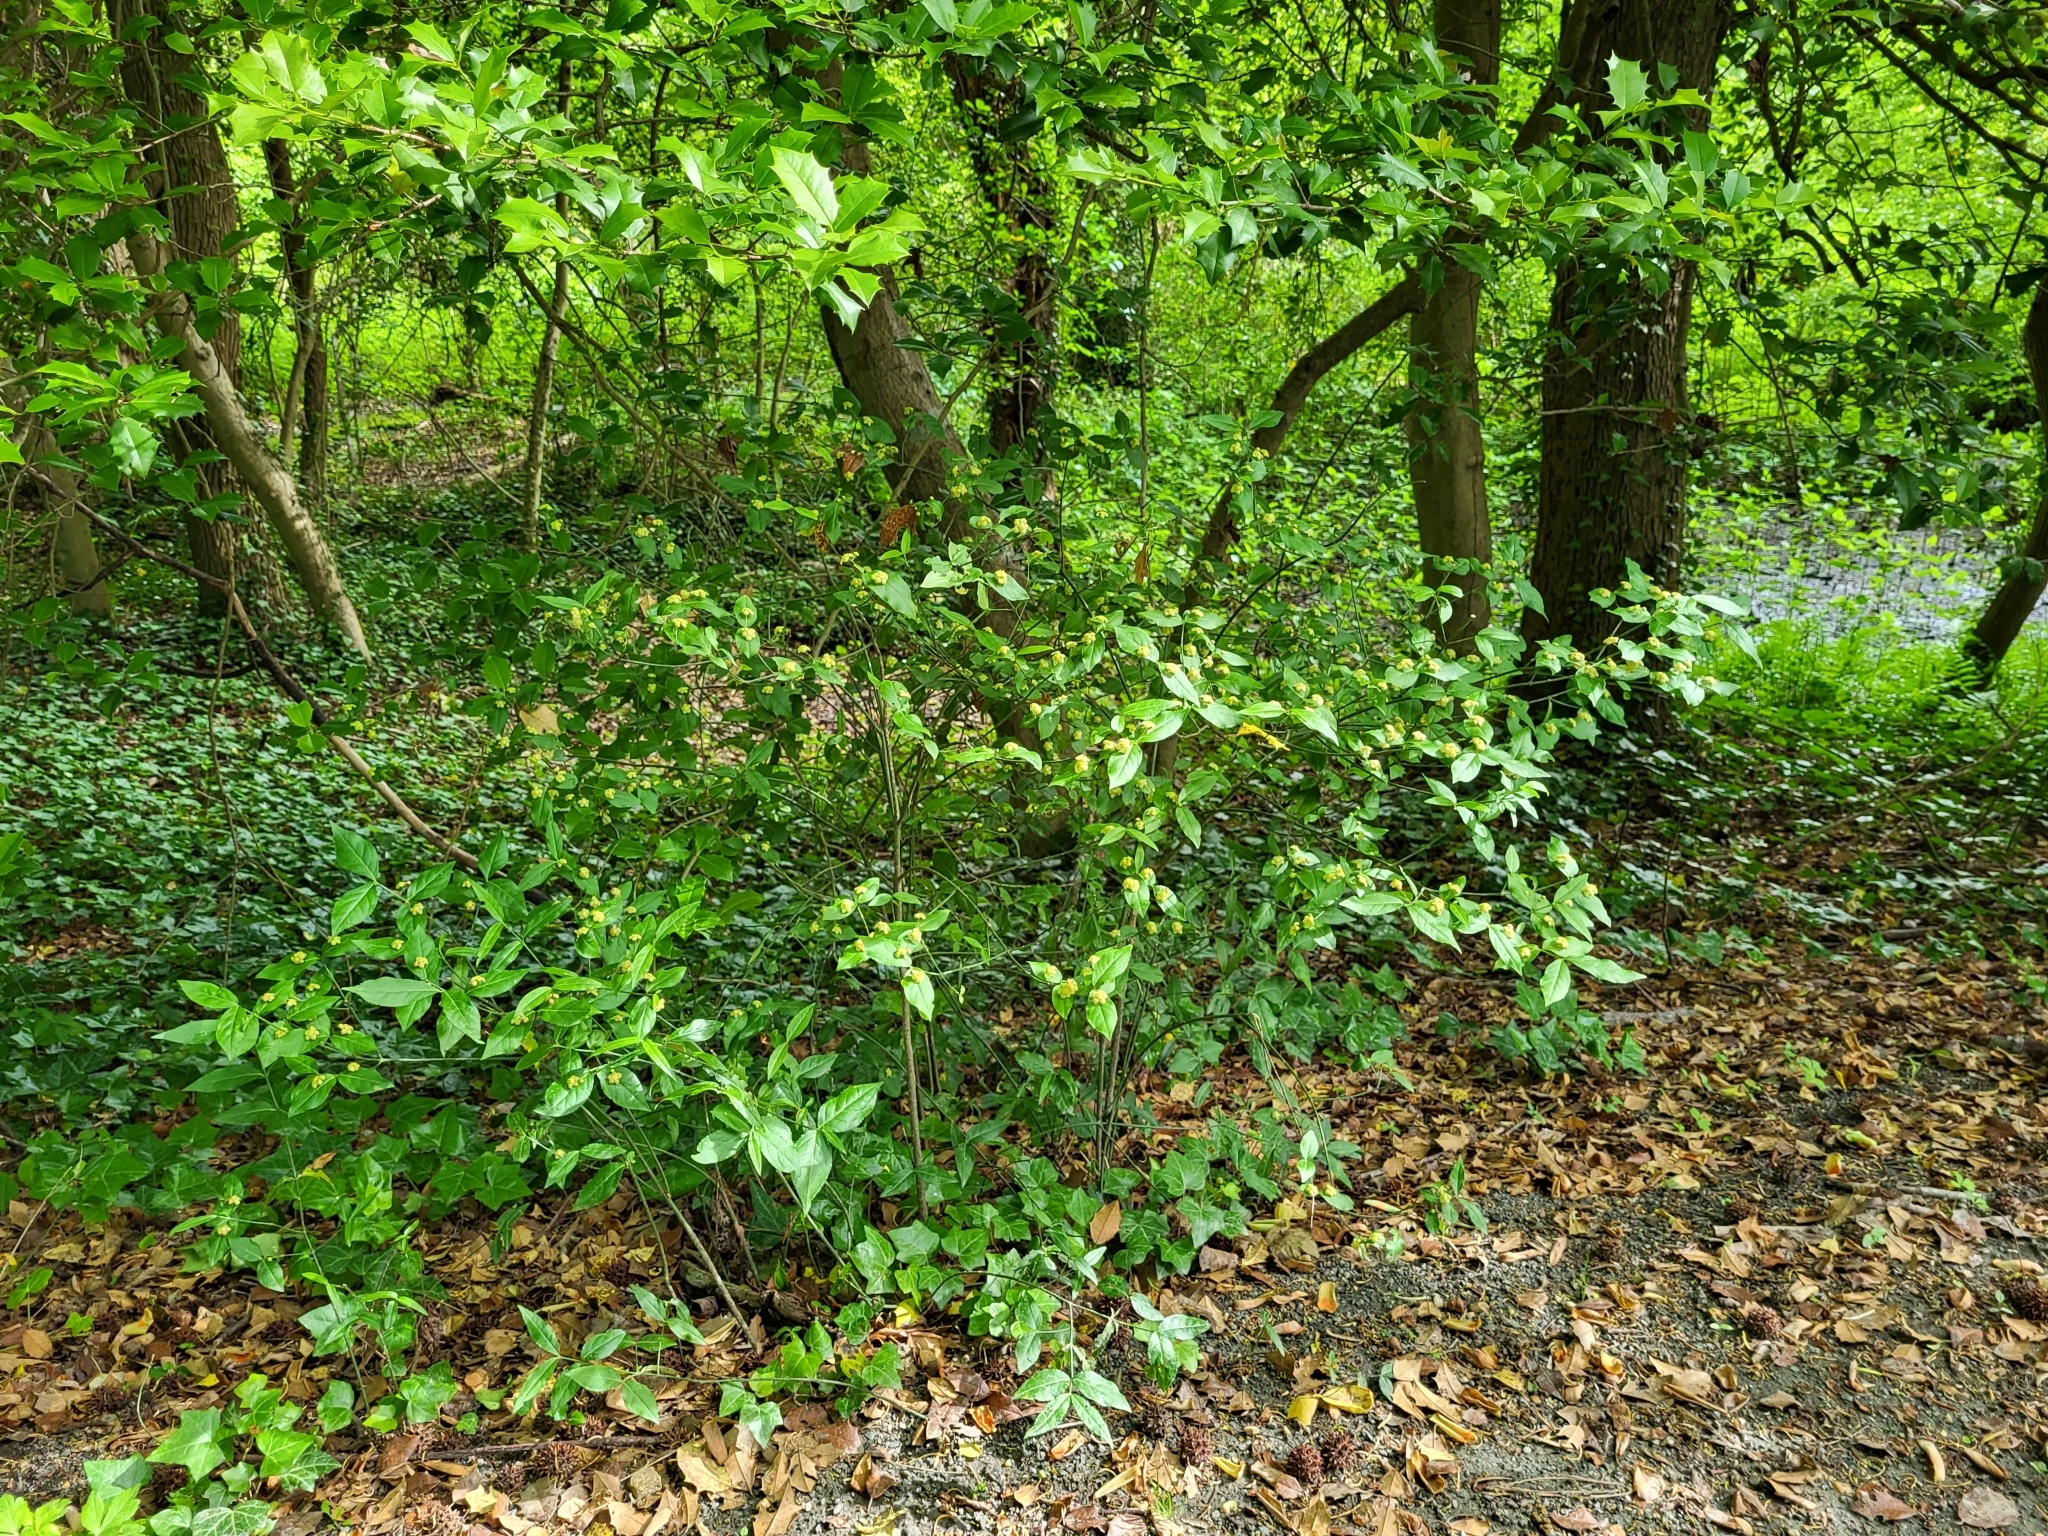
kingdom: Plantae
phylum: Tracheophyta
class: Magnoliopsida
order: Celastrales
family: Celastraceae
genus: Euonymus
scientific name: Euonymus americanus
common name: Bursting-heart
